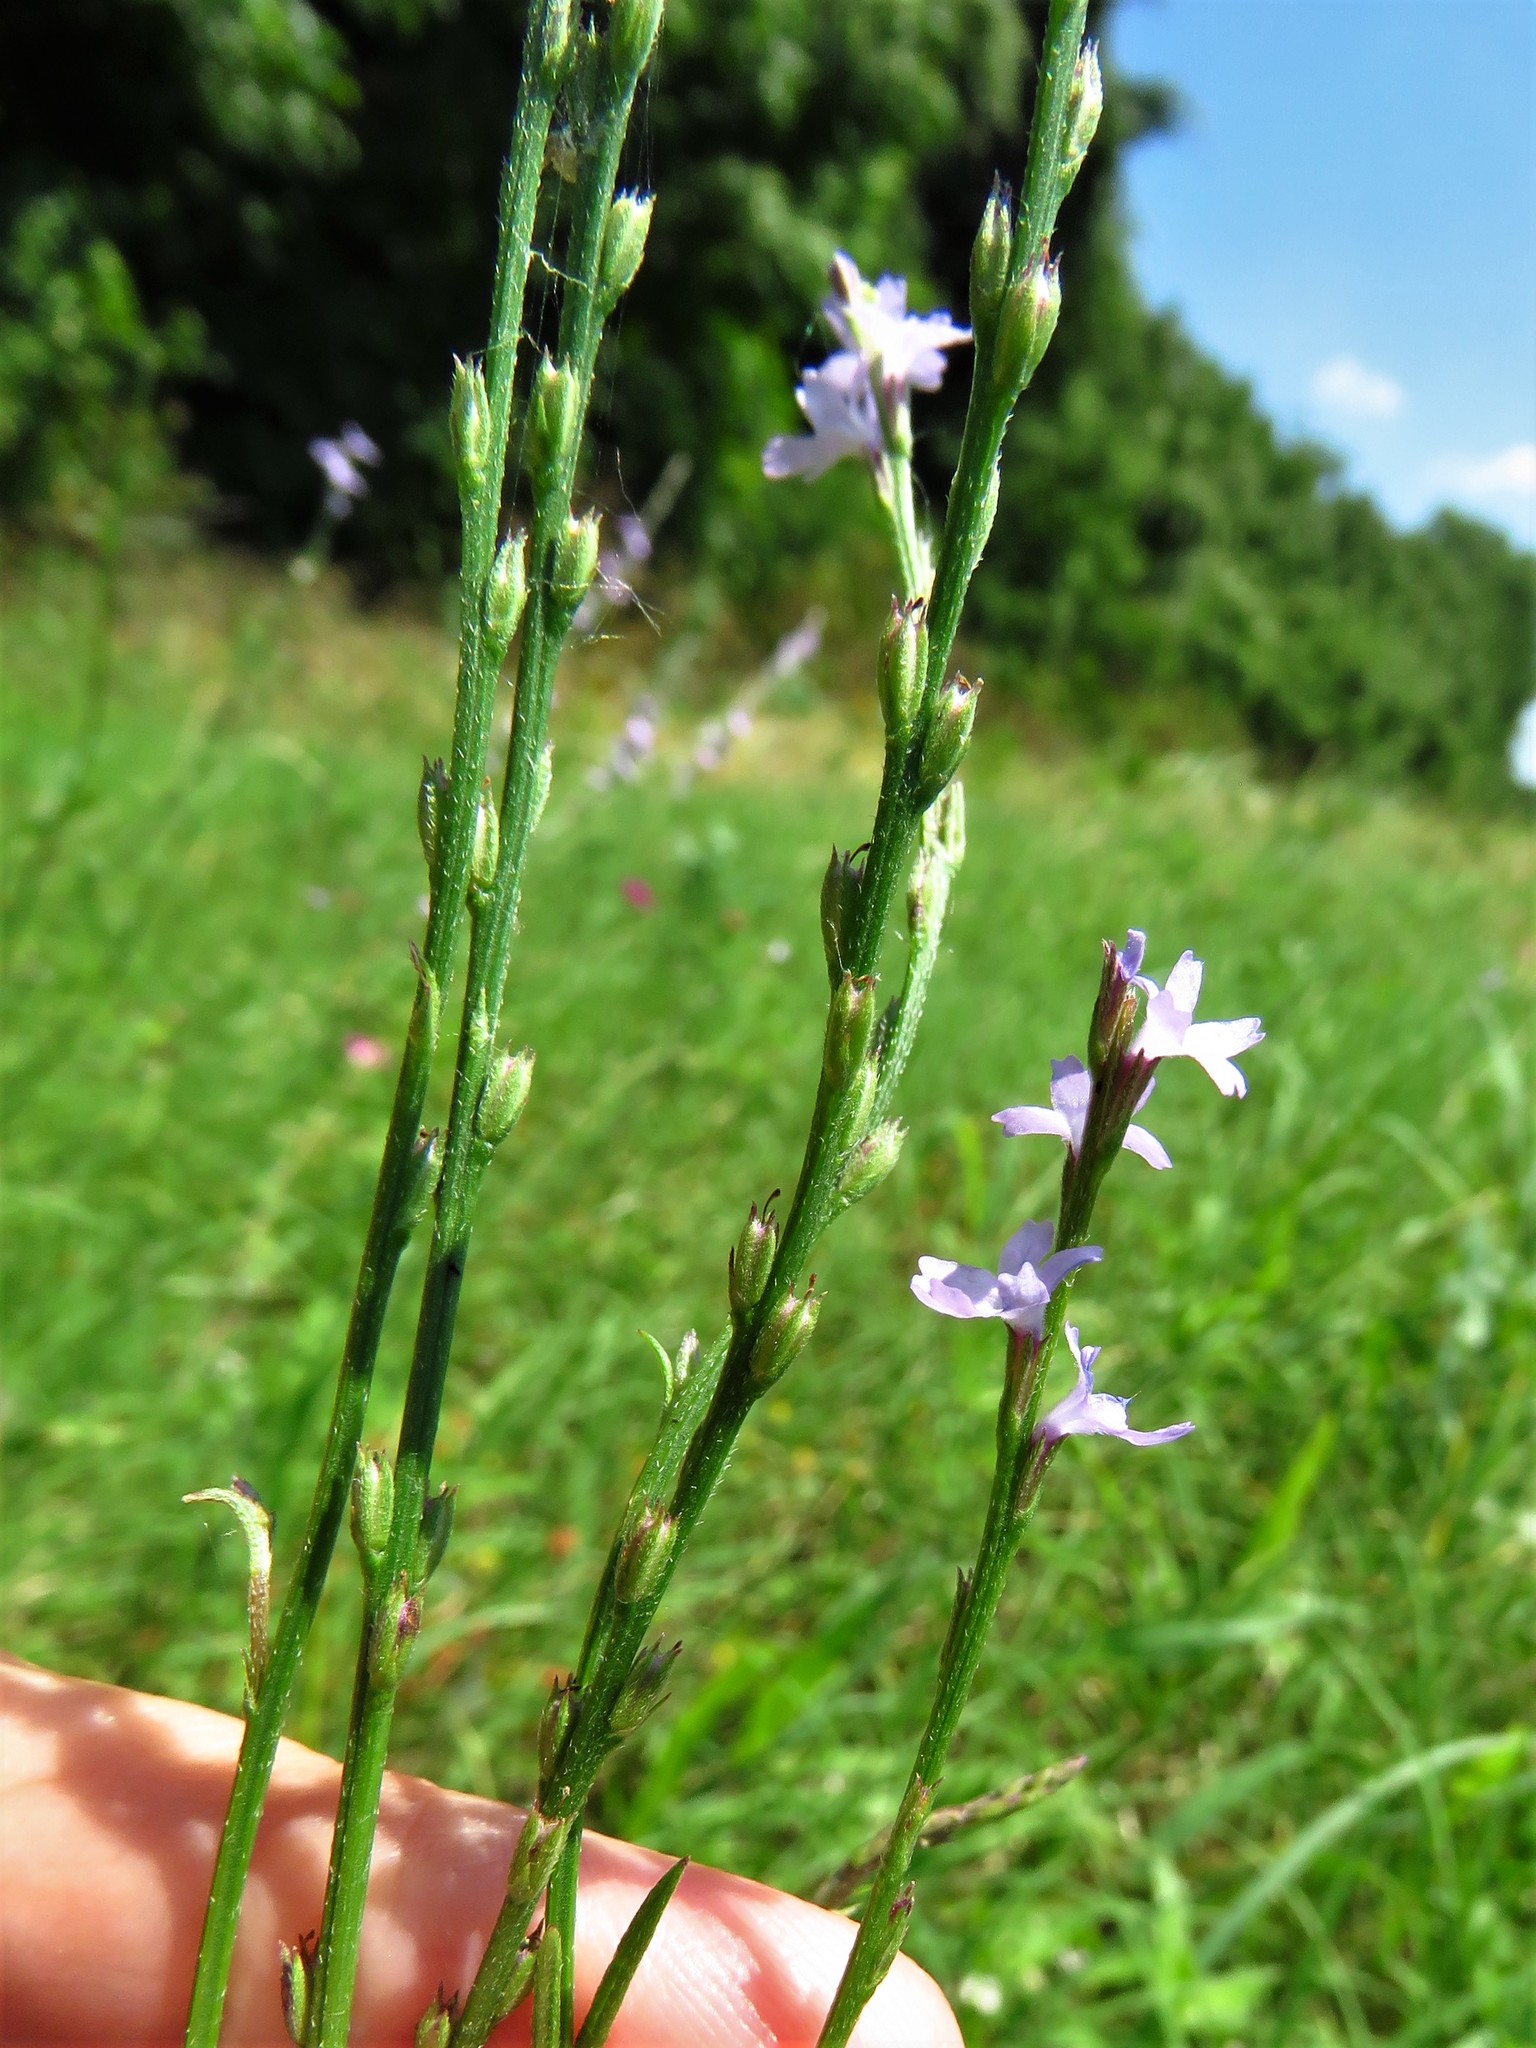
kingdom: Plantae
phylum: Tracheophyta
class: Magnoliopsida
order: Lamiales
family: Verbenaceae
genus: Verbena
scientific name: Verbena halei
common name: Texas vervain
